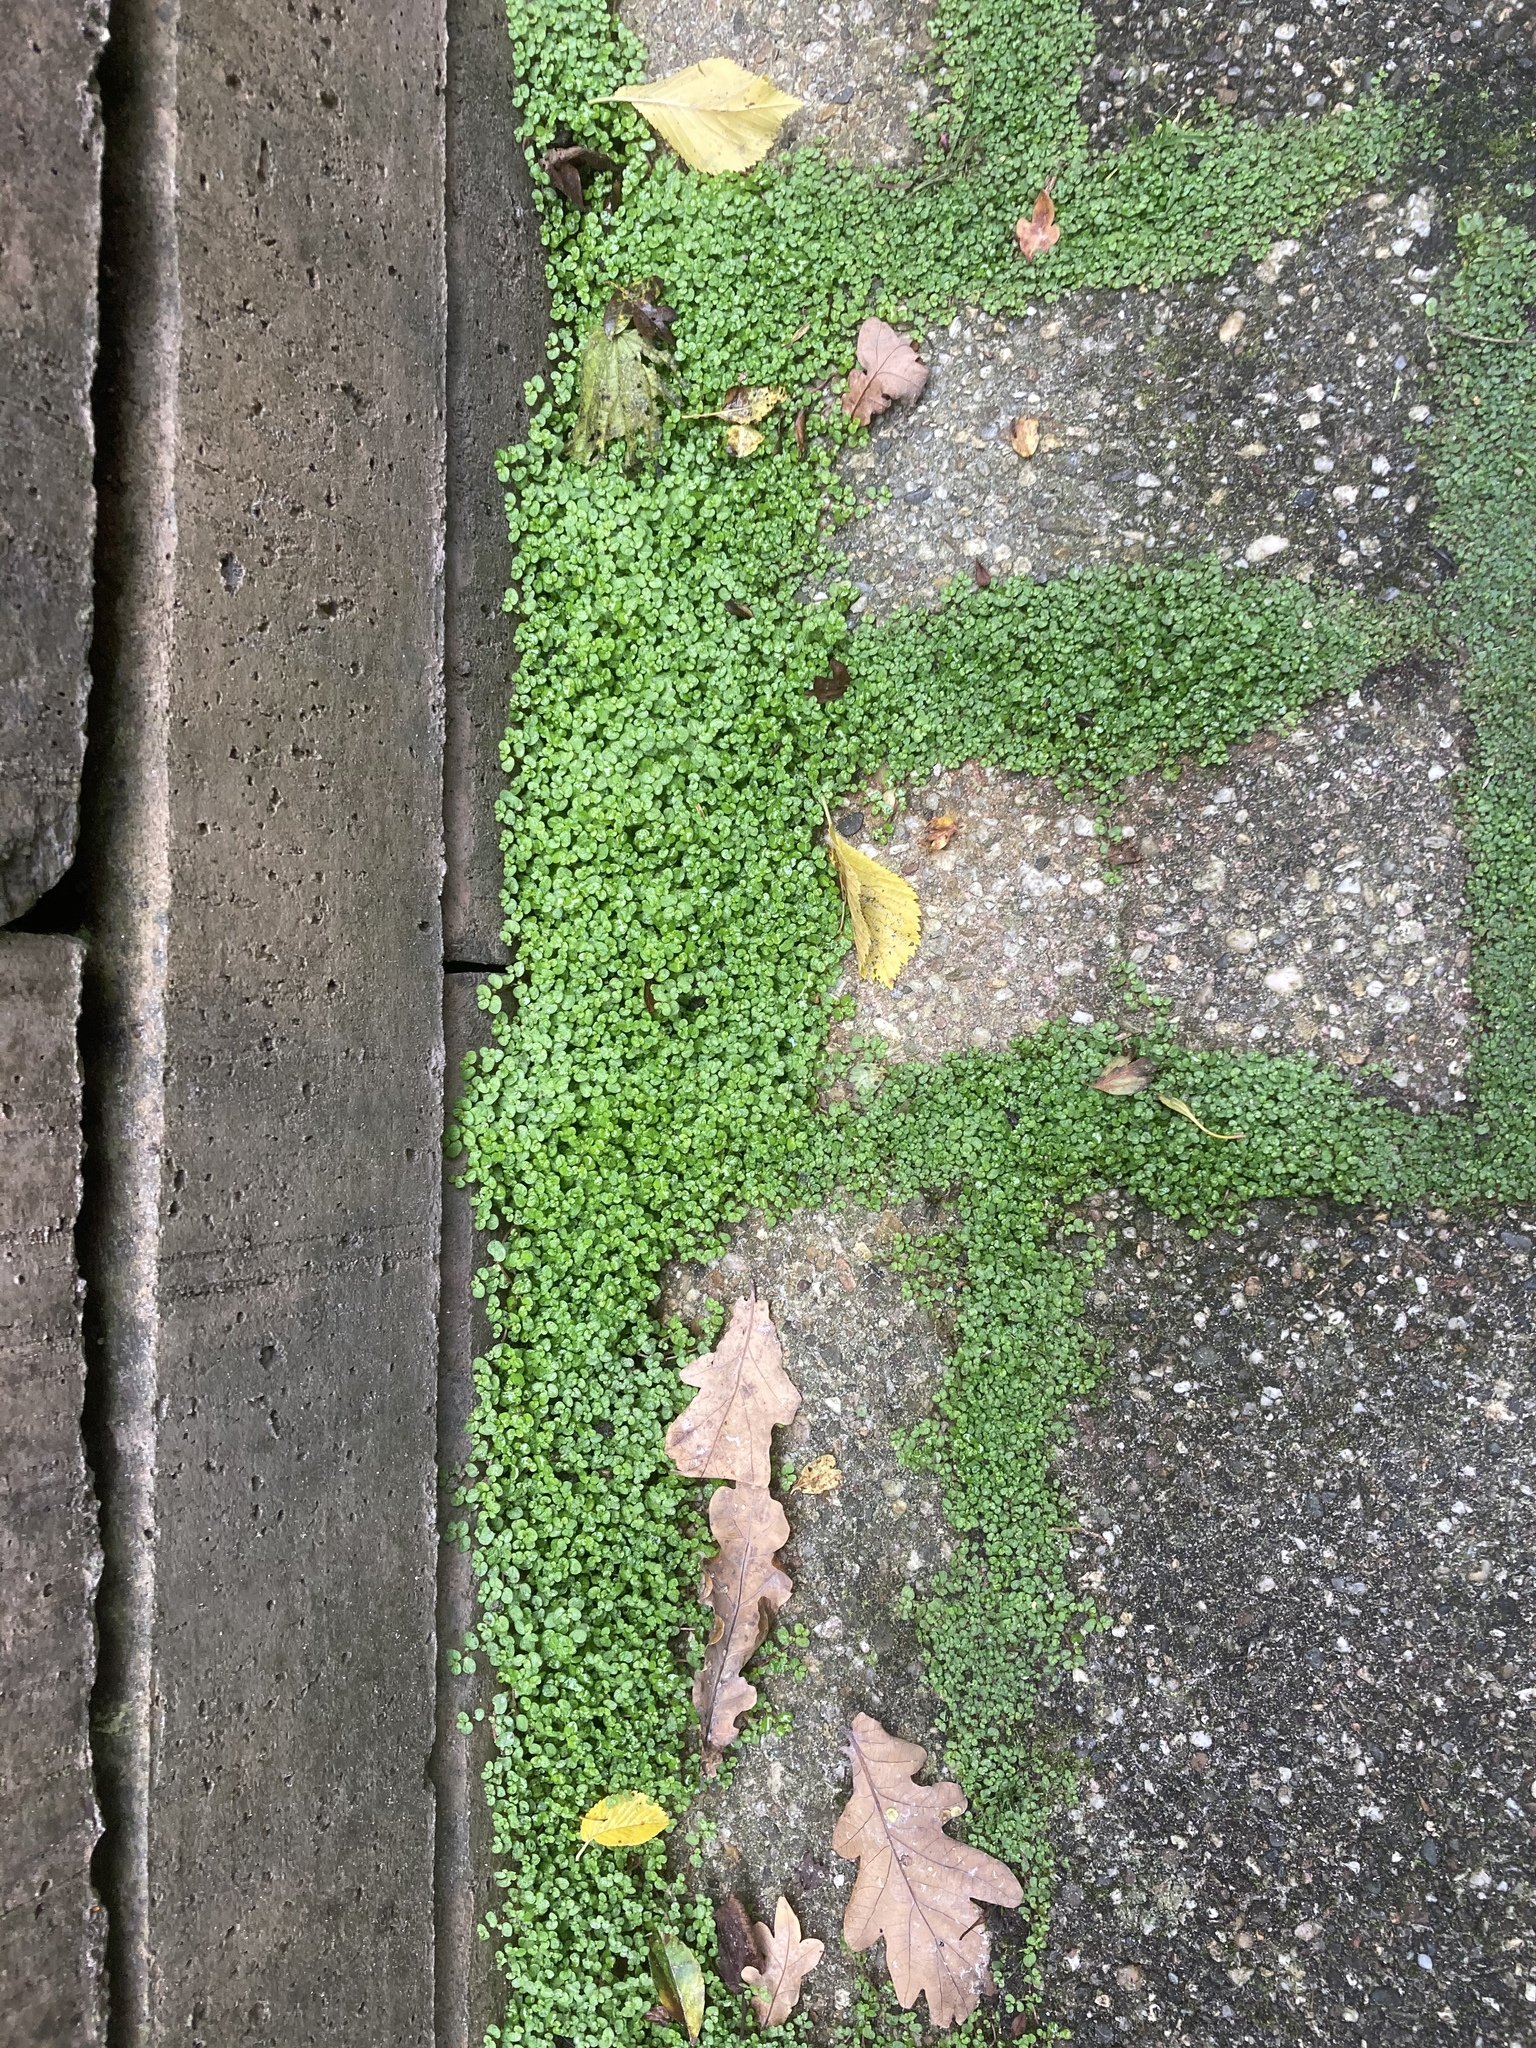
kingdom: Plantae
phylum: Tracheophyta
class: Magnoliopsida
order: Rosales
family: Urticaceae
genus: Soleirolia
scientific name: Soleirolia soleirolii
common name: Mind-your-own-business
